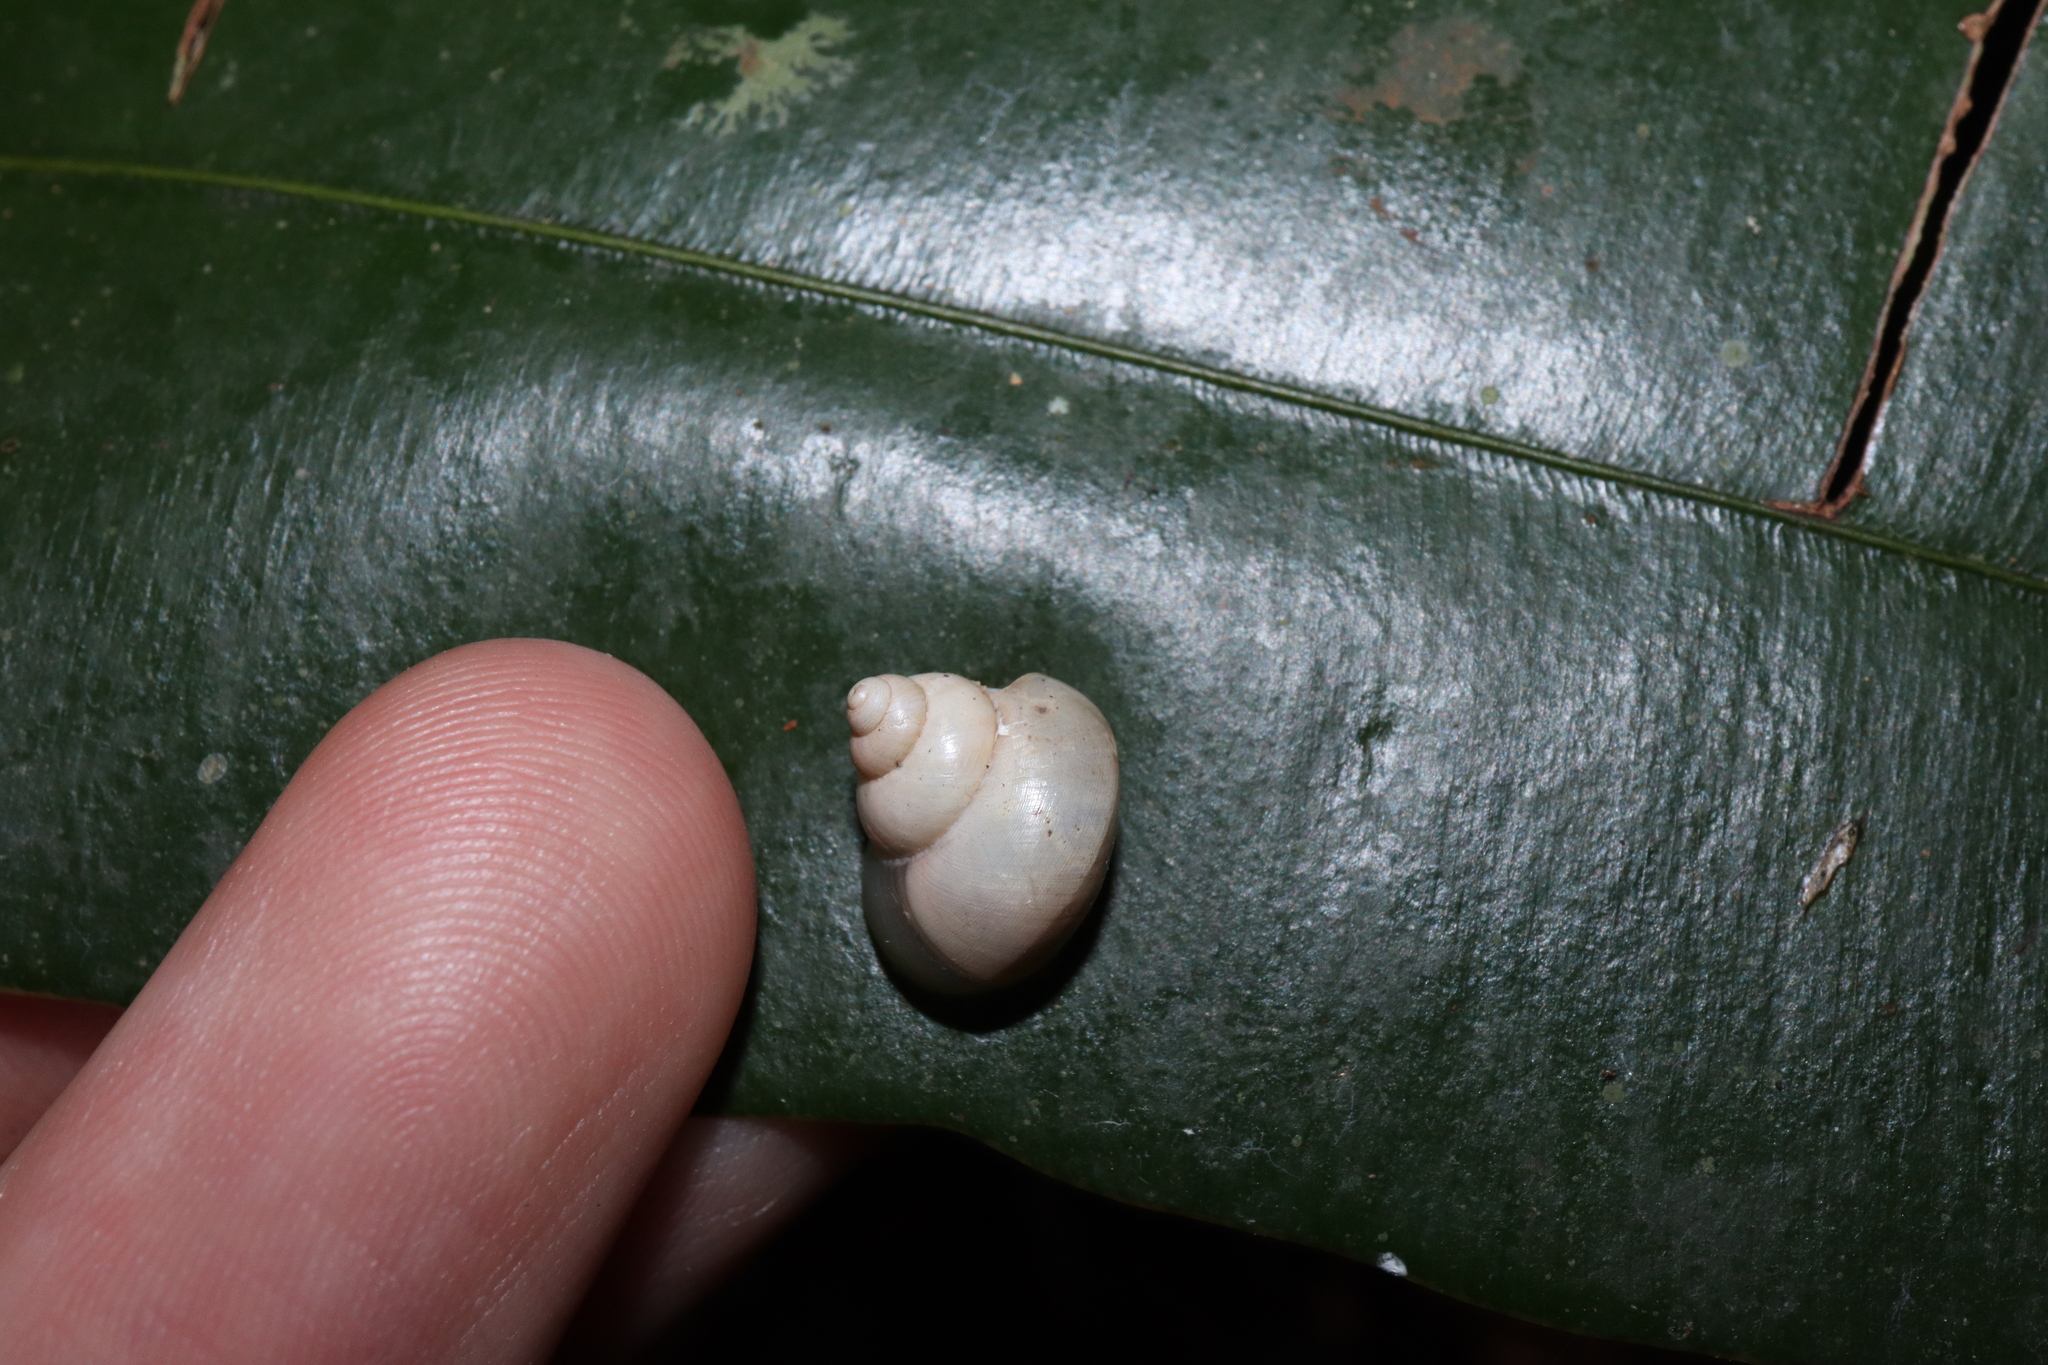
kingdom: Animalia
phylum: Mollusca
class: Gastropoda
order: Architaenioglossa
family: Cyclophoridae
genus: Leptopoma
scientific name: Leptopoma perlucidum
